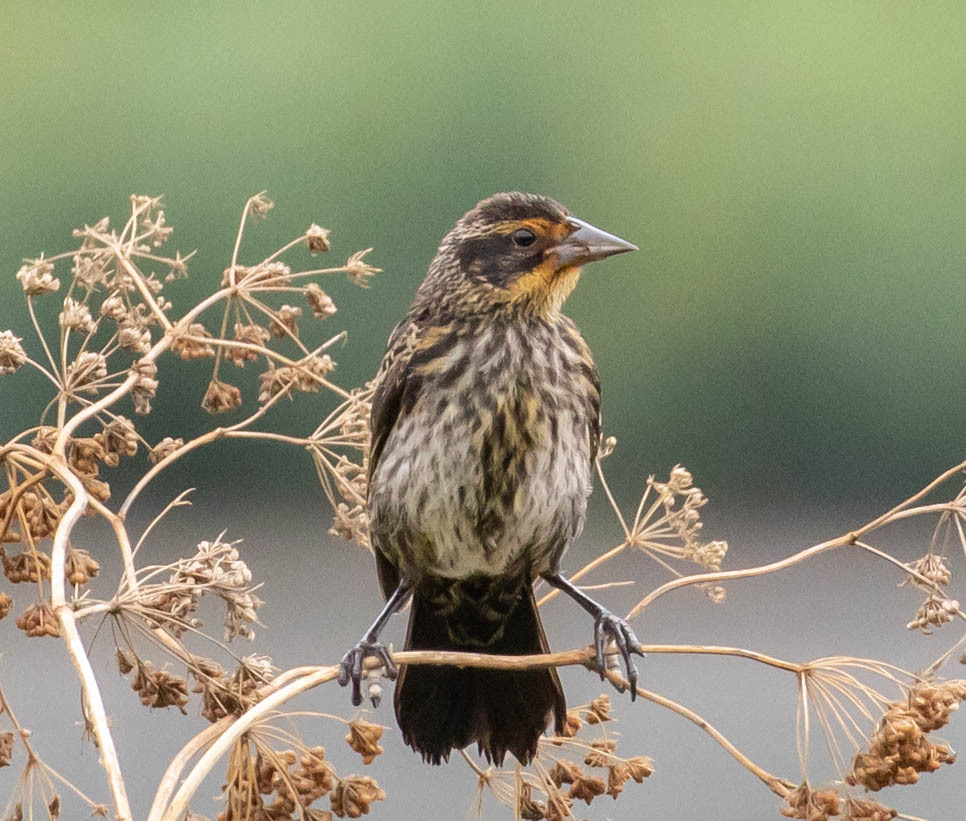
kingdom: Animalia
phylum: Chordata
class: Aves
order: Passeriformes
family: Icteridae
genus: Agelaius
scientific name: Agelaius phoeniceus
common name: Red-winged blackbird
